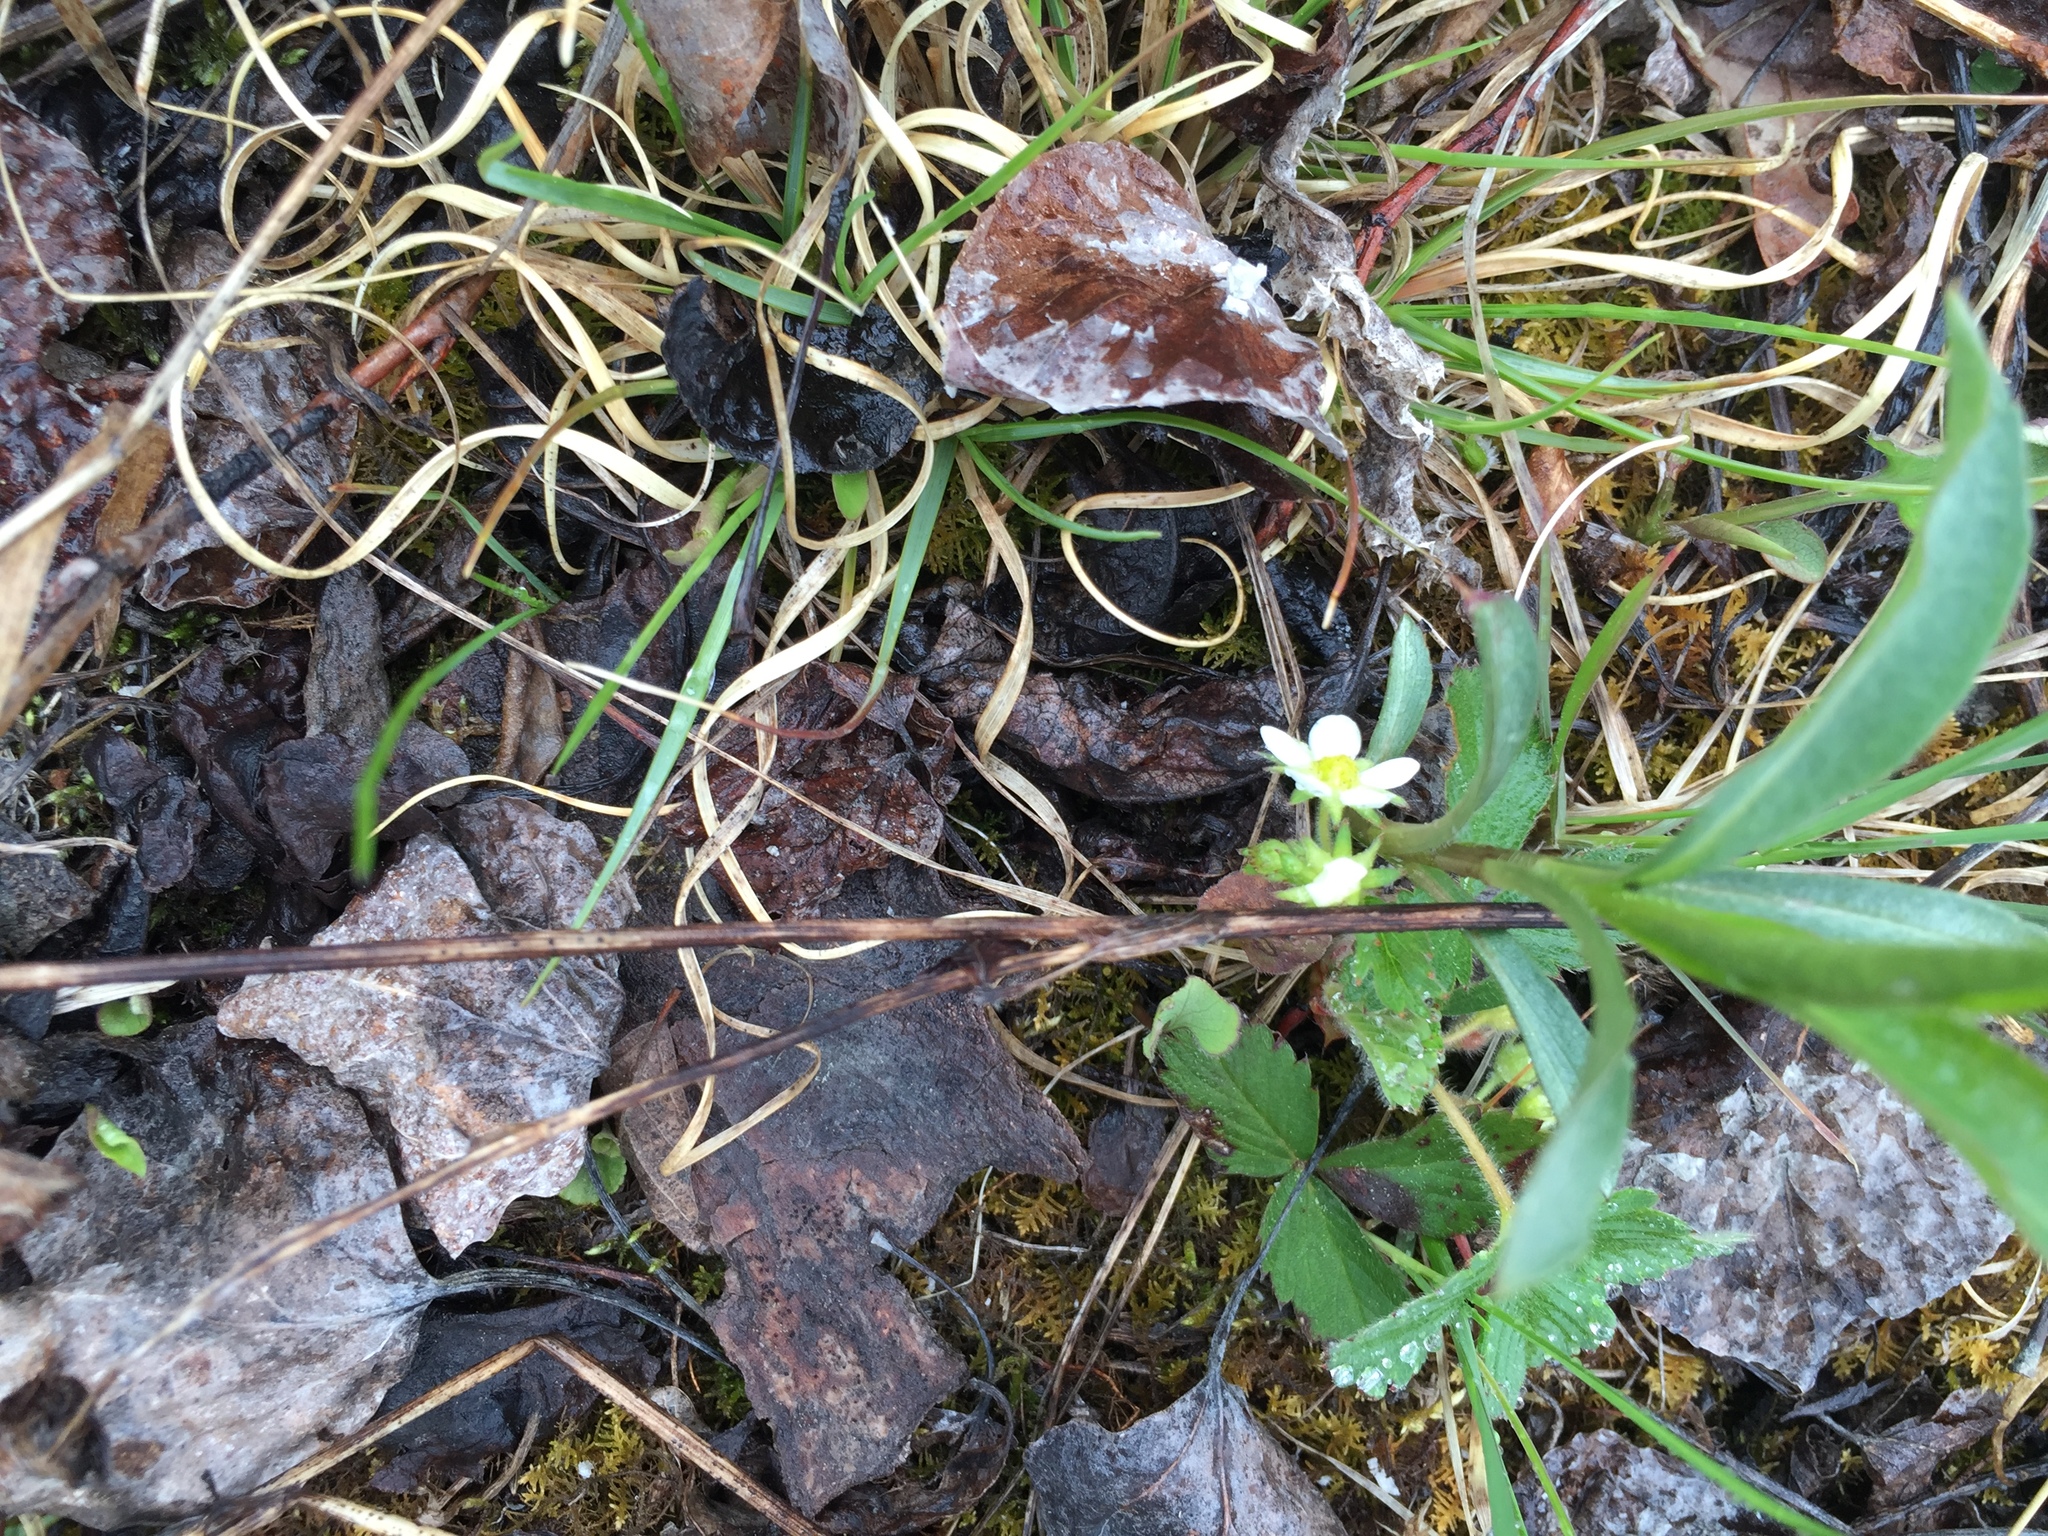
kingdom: Plantae
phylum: Tracheophyta
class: Magnoliopsida
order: Rosales
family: Rosaceae
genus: Fragaria
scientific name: Fragaria virginiana
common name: Thickleaved wild strawberry
